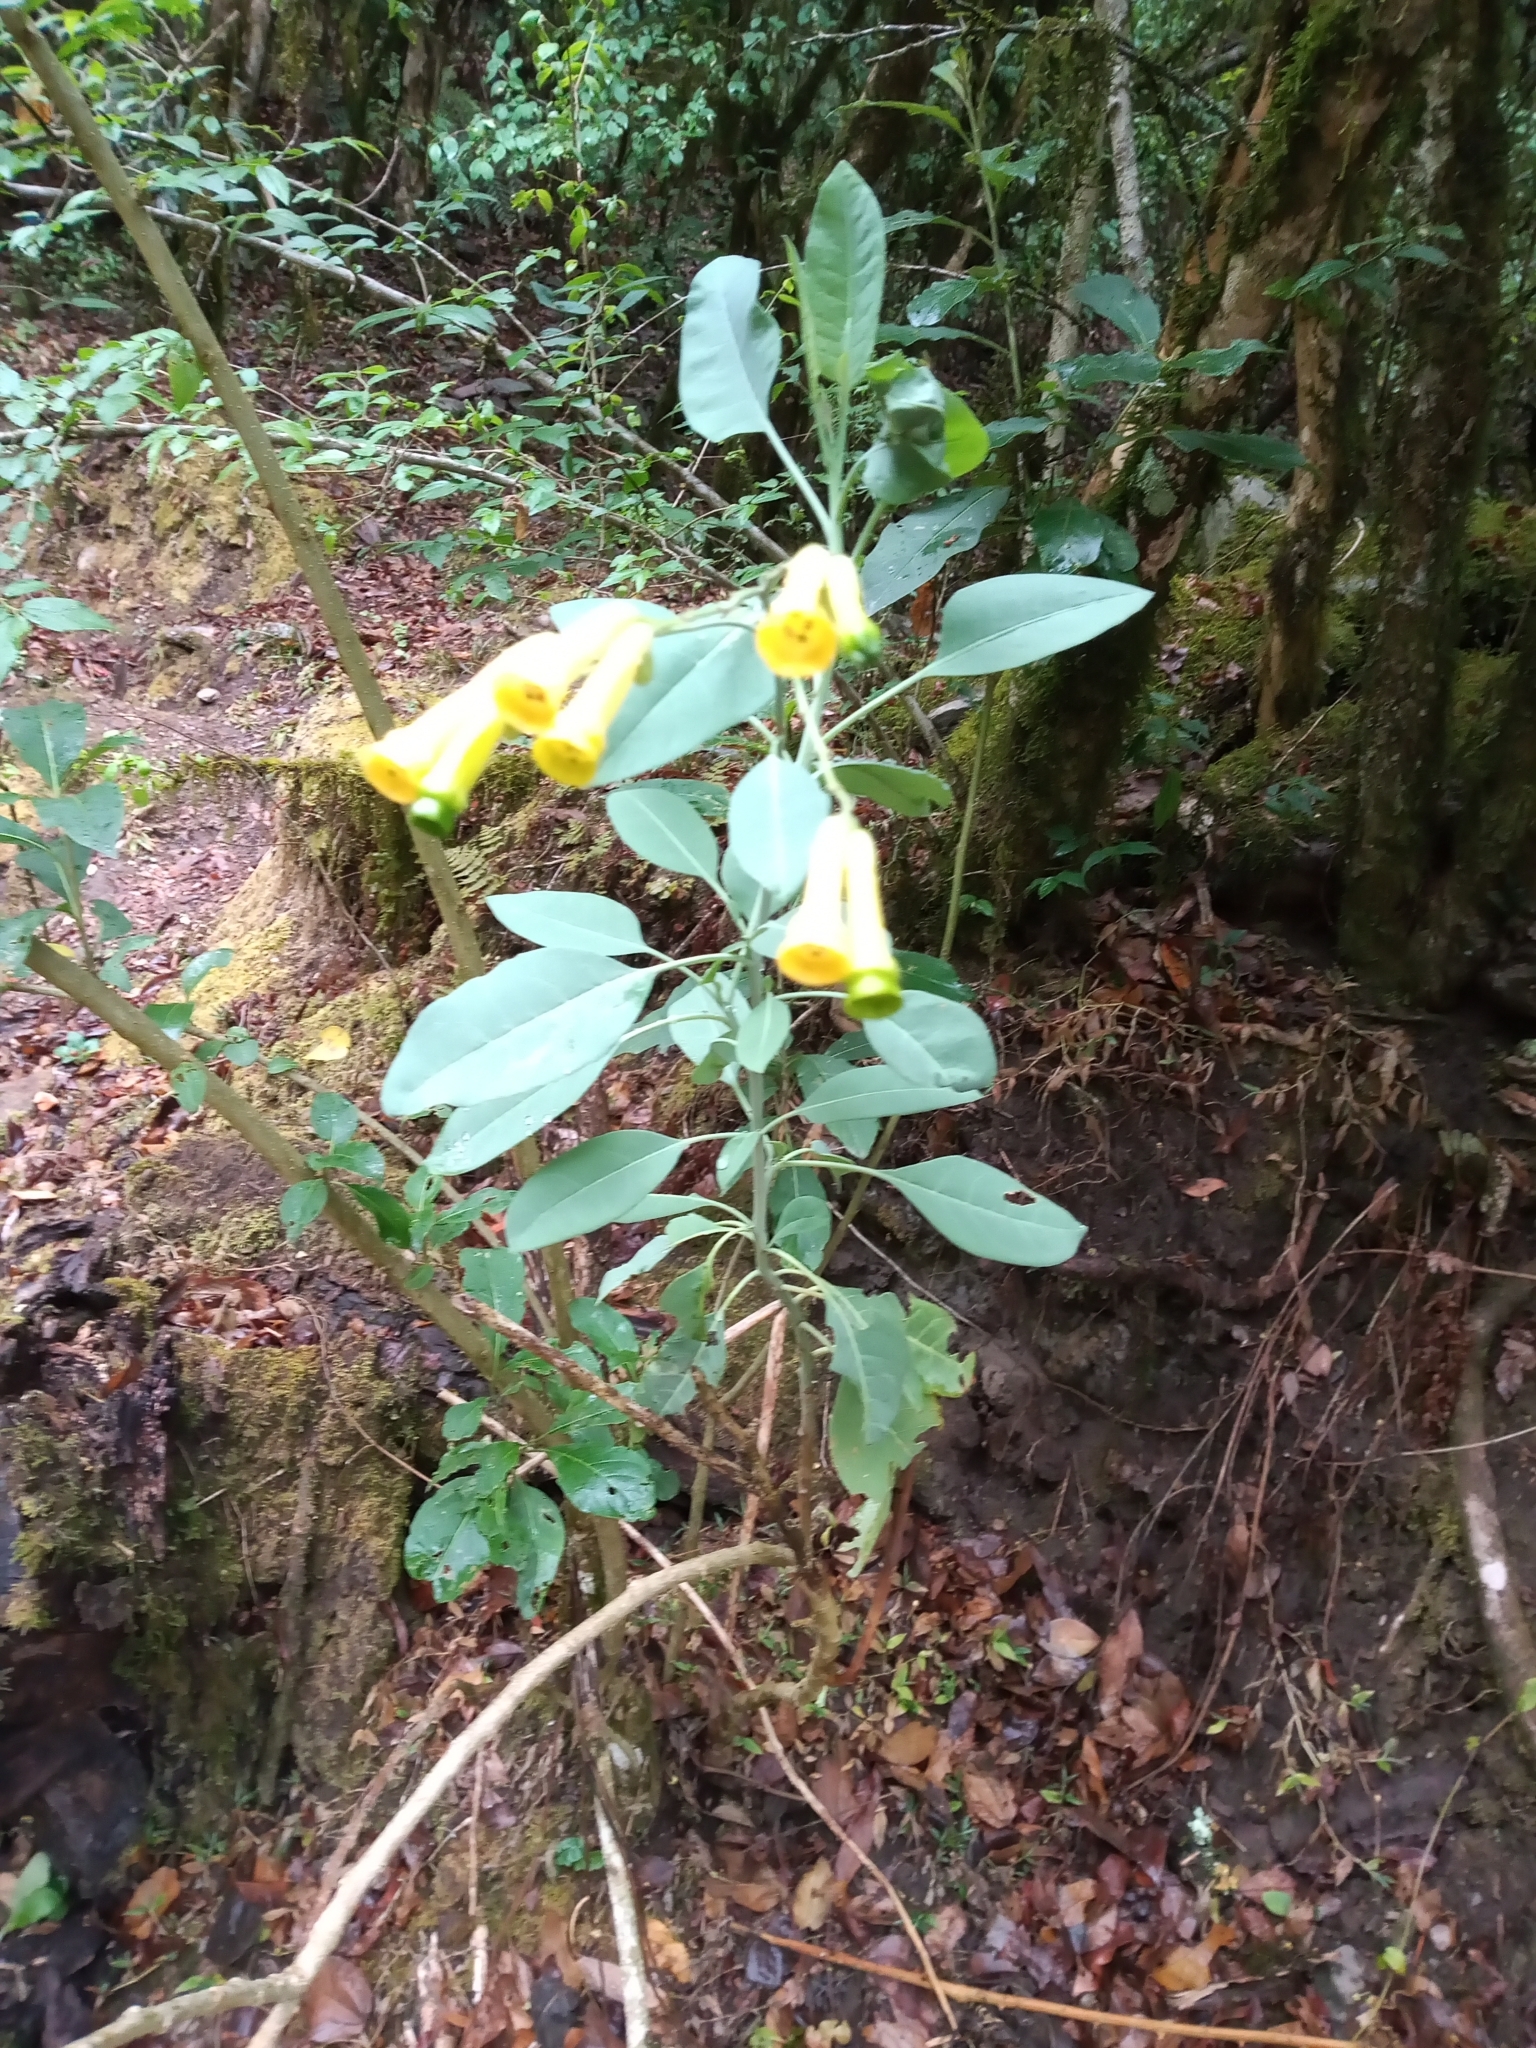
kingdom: Plantae
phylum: Tracheophyta
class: Magnoliopsida
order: Solanales
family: Solanaceae
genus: Nicotiana
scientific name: Nicotiana glauca
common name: Tree tobacco
